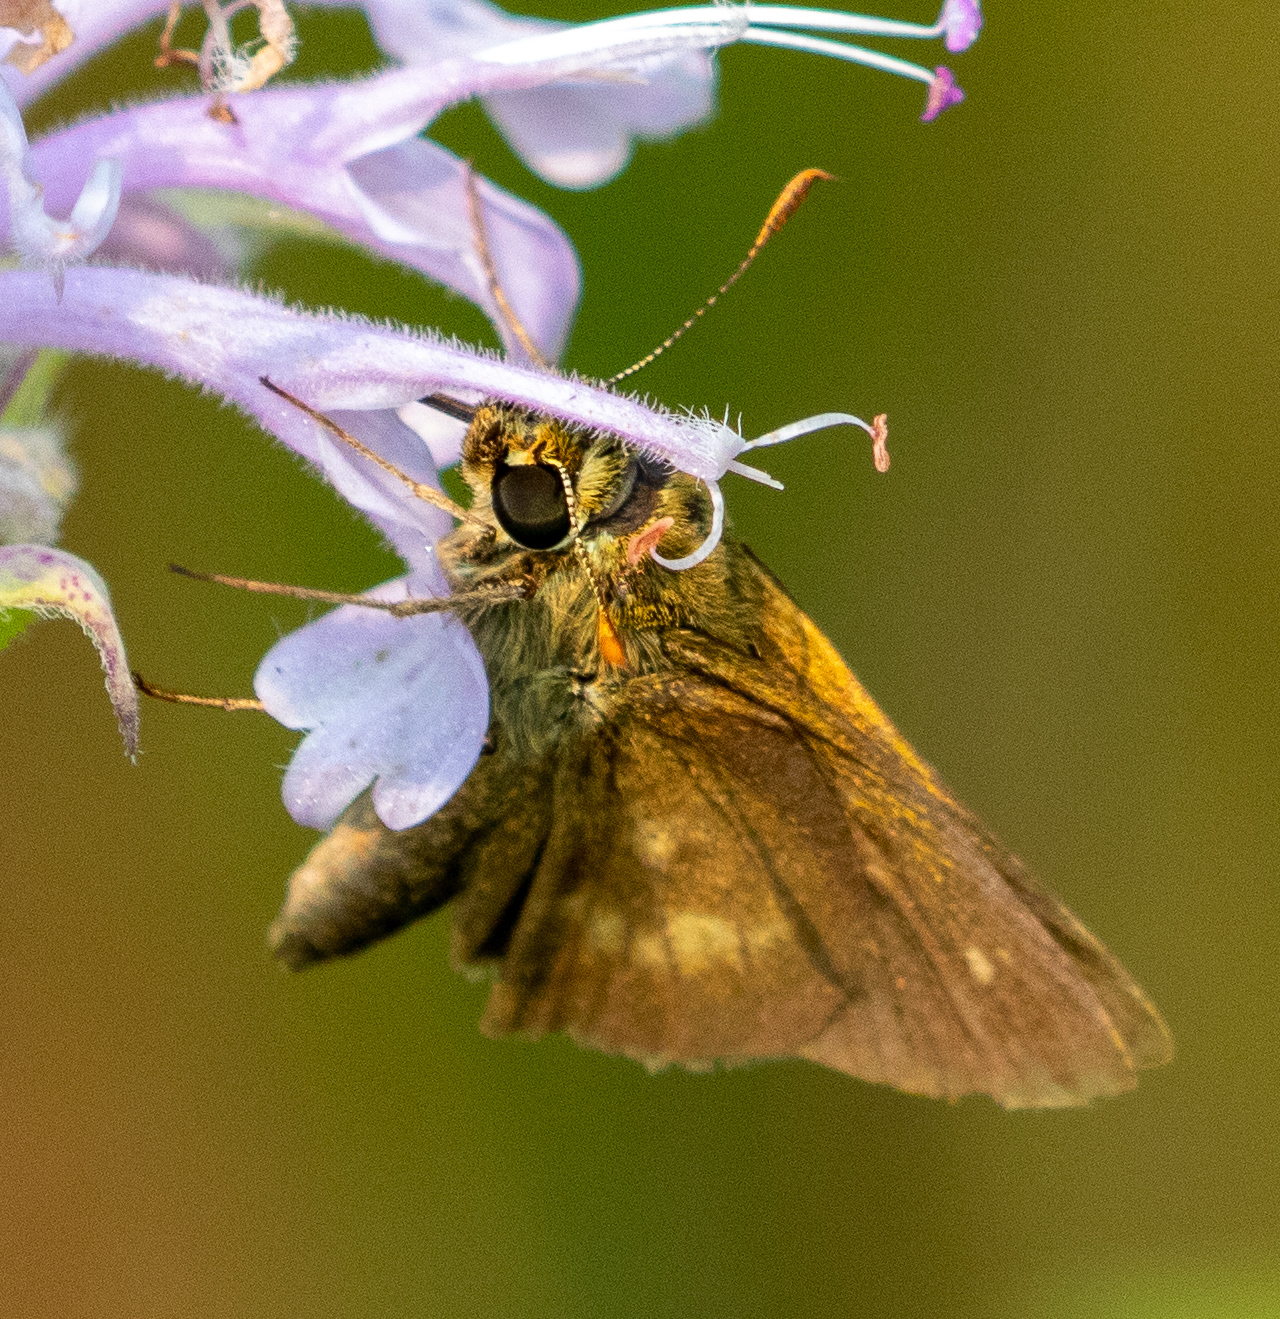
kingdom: Animalia
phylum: Arthropoda
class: Insecta
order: Lepidoptera
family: Hesperiidae
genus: Polites
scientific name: Polites egeremet
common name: Northern broken-dash
